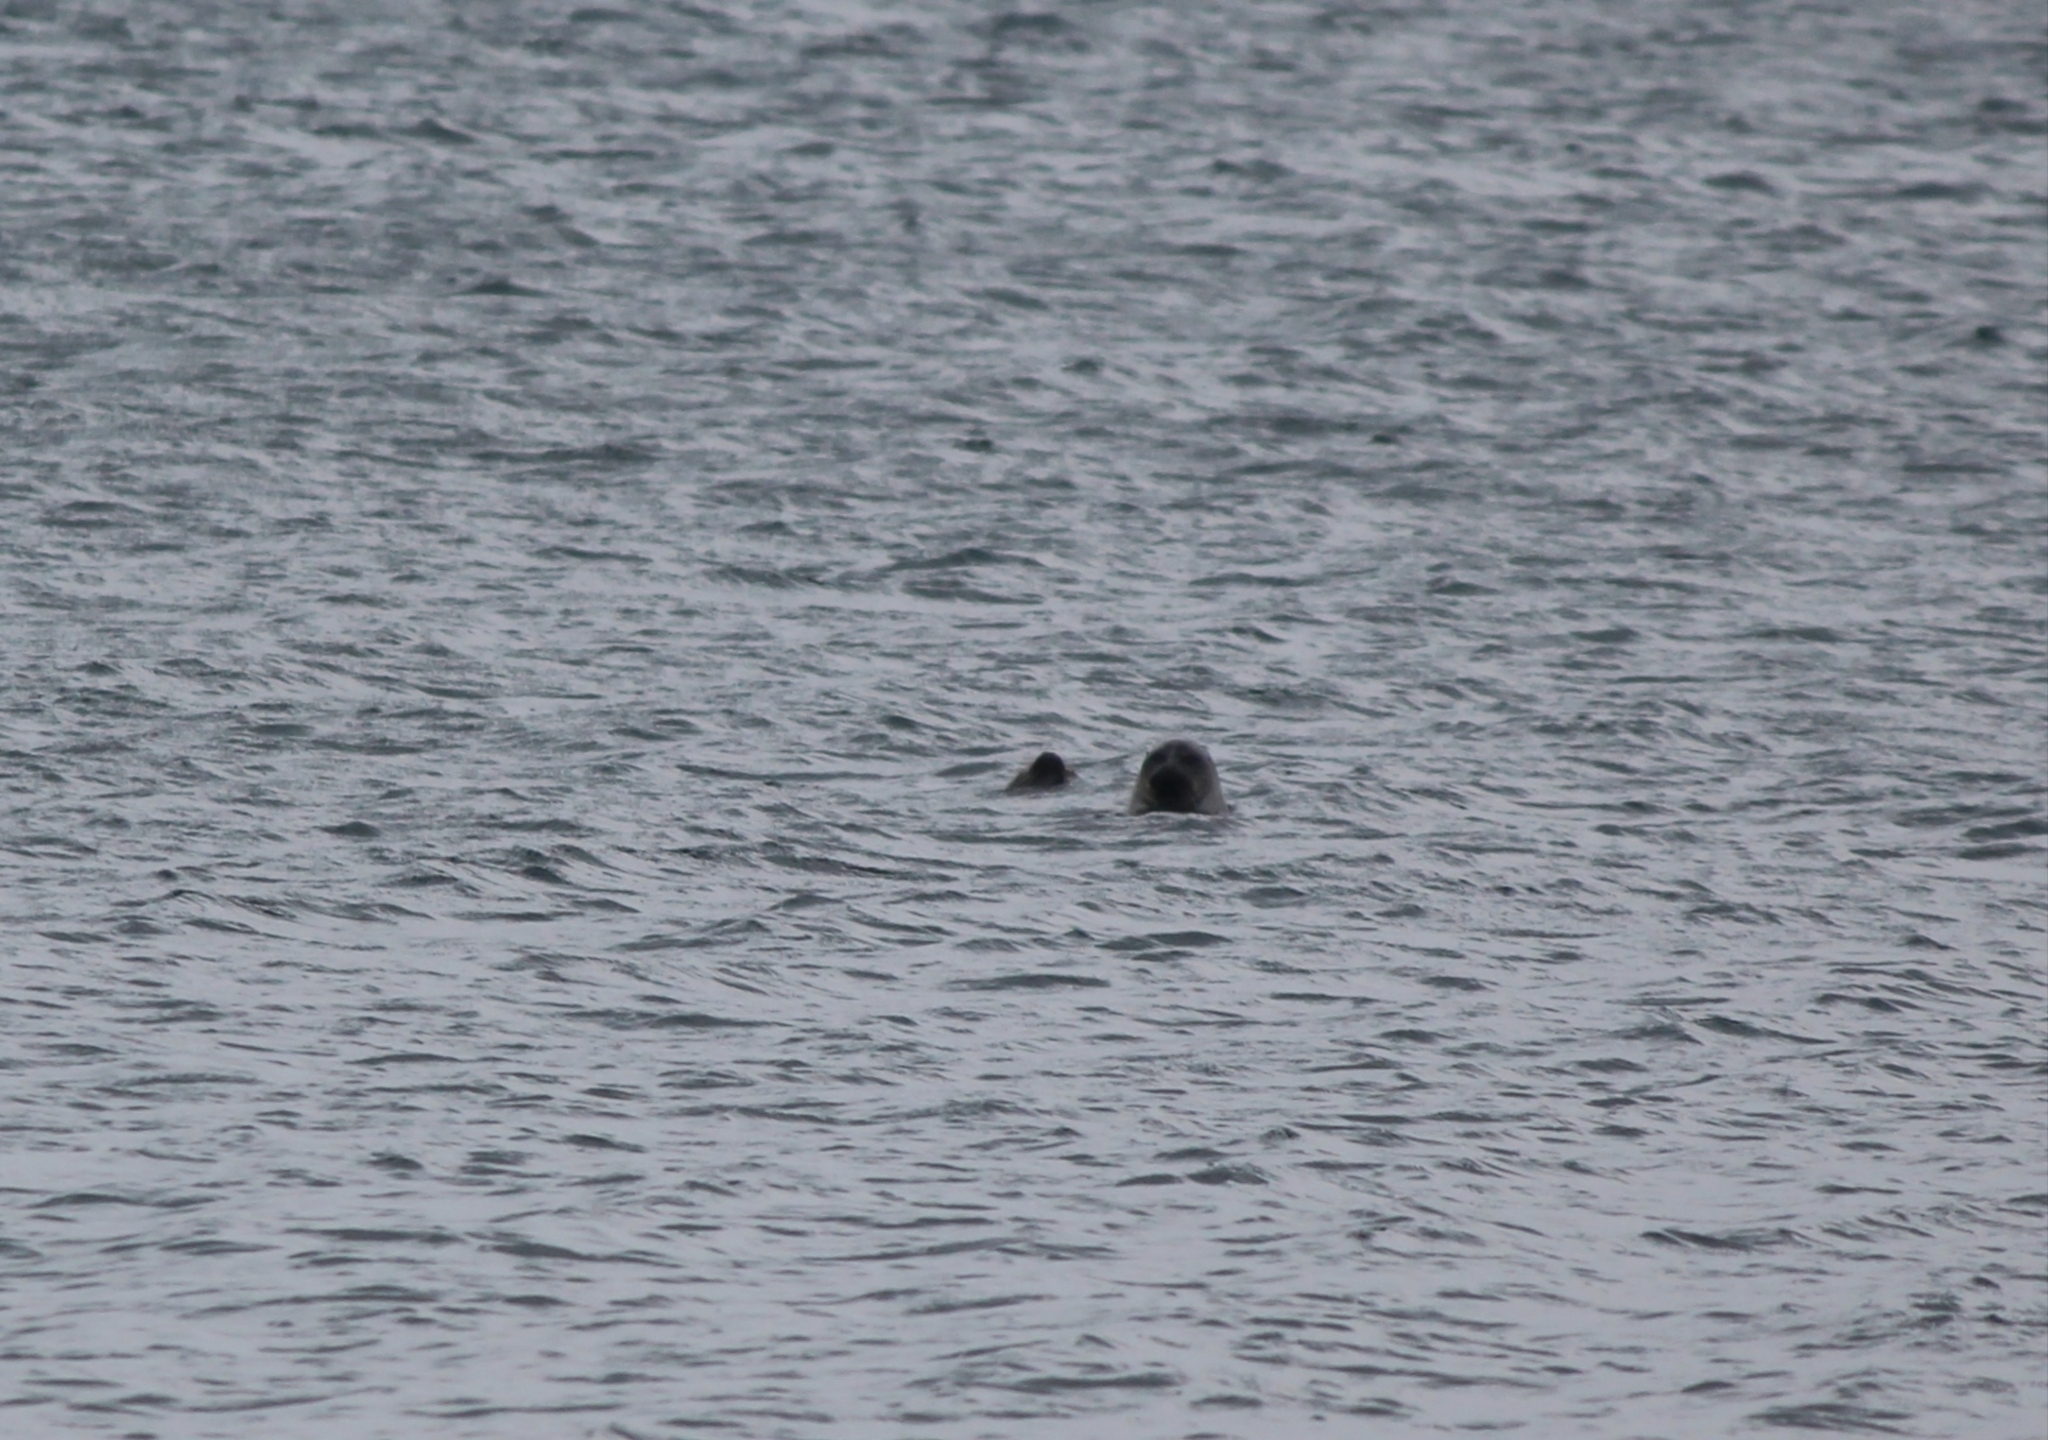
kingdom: Animalia
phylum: Chordata
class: Mammalia
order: Carnivora
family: Phocidae
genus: Pusa
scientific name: Pusa sibirica
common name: Baikal seal
